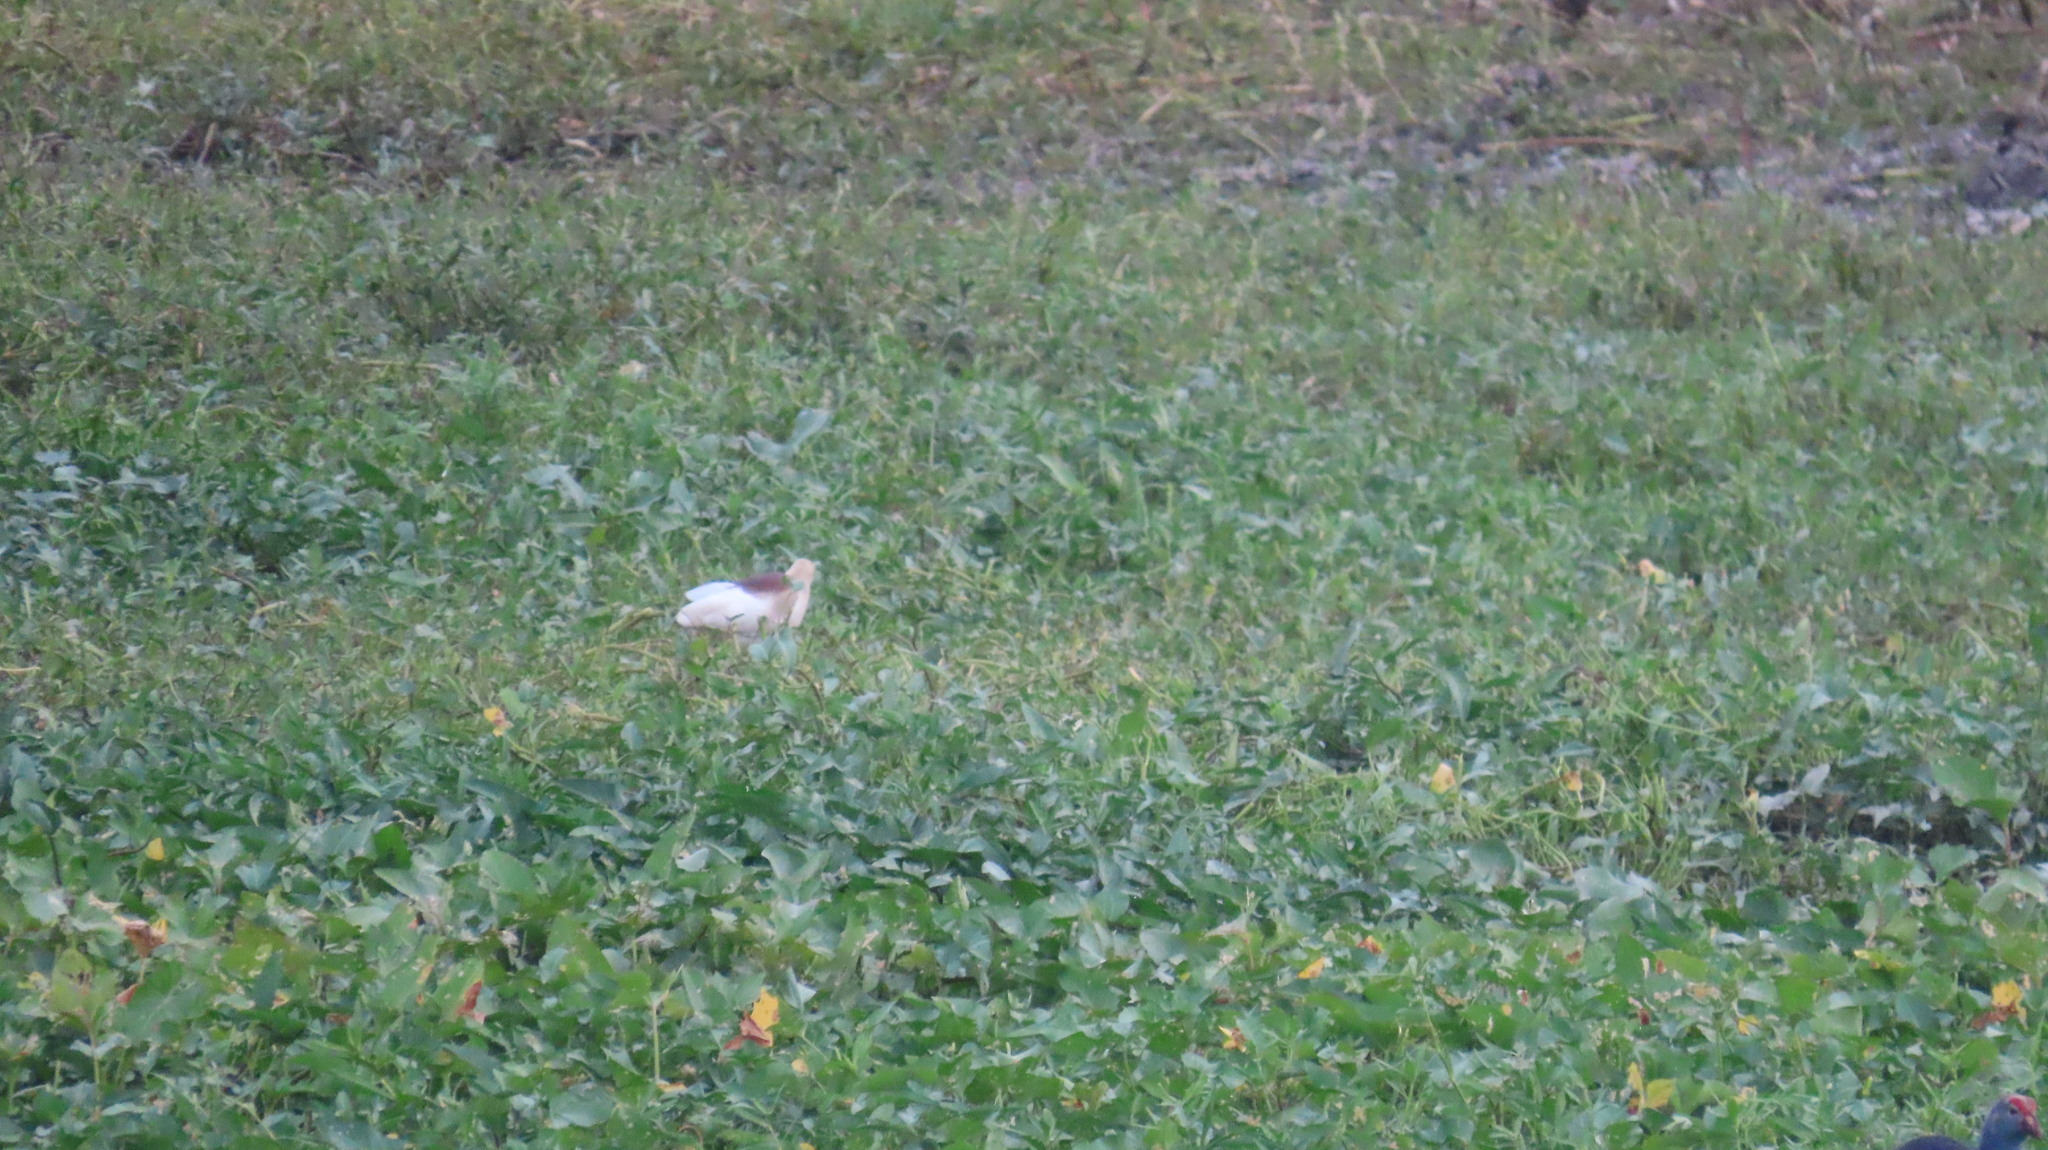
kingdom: Animalia
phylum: Chordata
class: Aves
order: Pelecaniformes
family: Ardeidae
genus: Ardeola
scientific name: Ardeola grayii
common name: Indian pond heron
